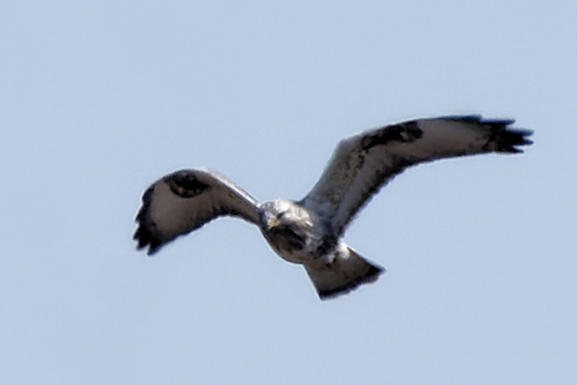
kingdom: Animalia
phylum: Chordata
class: Aves
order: Accipitriformes
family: Accipitridae
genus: Buteo
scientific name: Buteo lagopus
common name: Rough-legged buzzard
